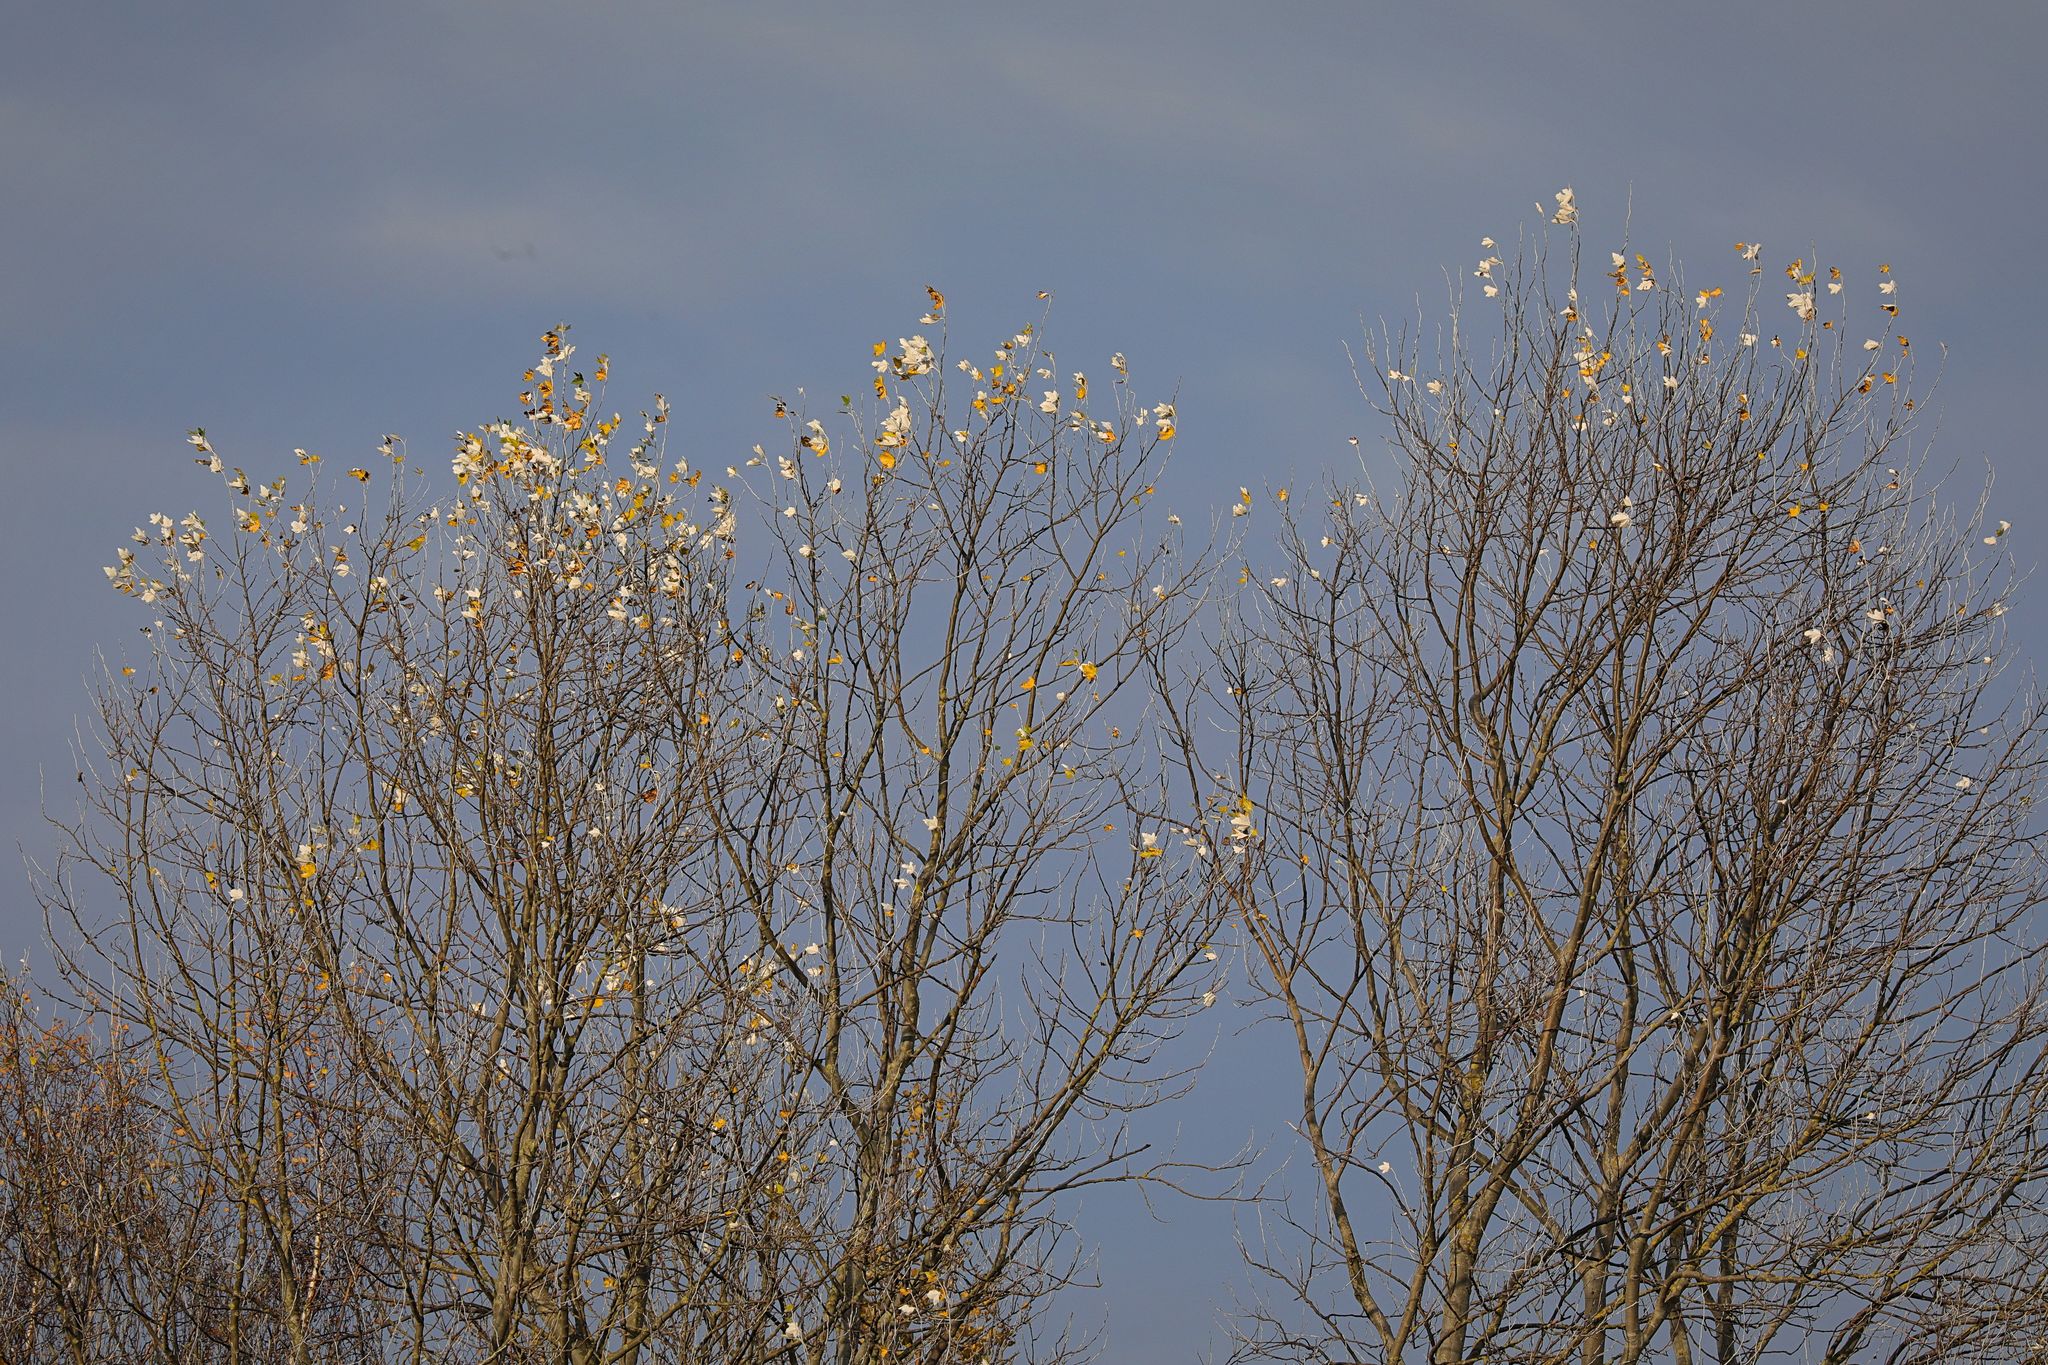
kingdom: Plantae
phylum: Tracheophyta
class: Magnoliopsida
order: Malpighiales
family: Salicaceae
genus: Populus
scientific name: Populus alba
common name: White poplar
